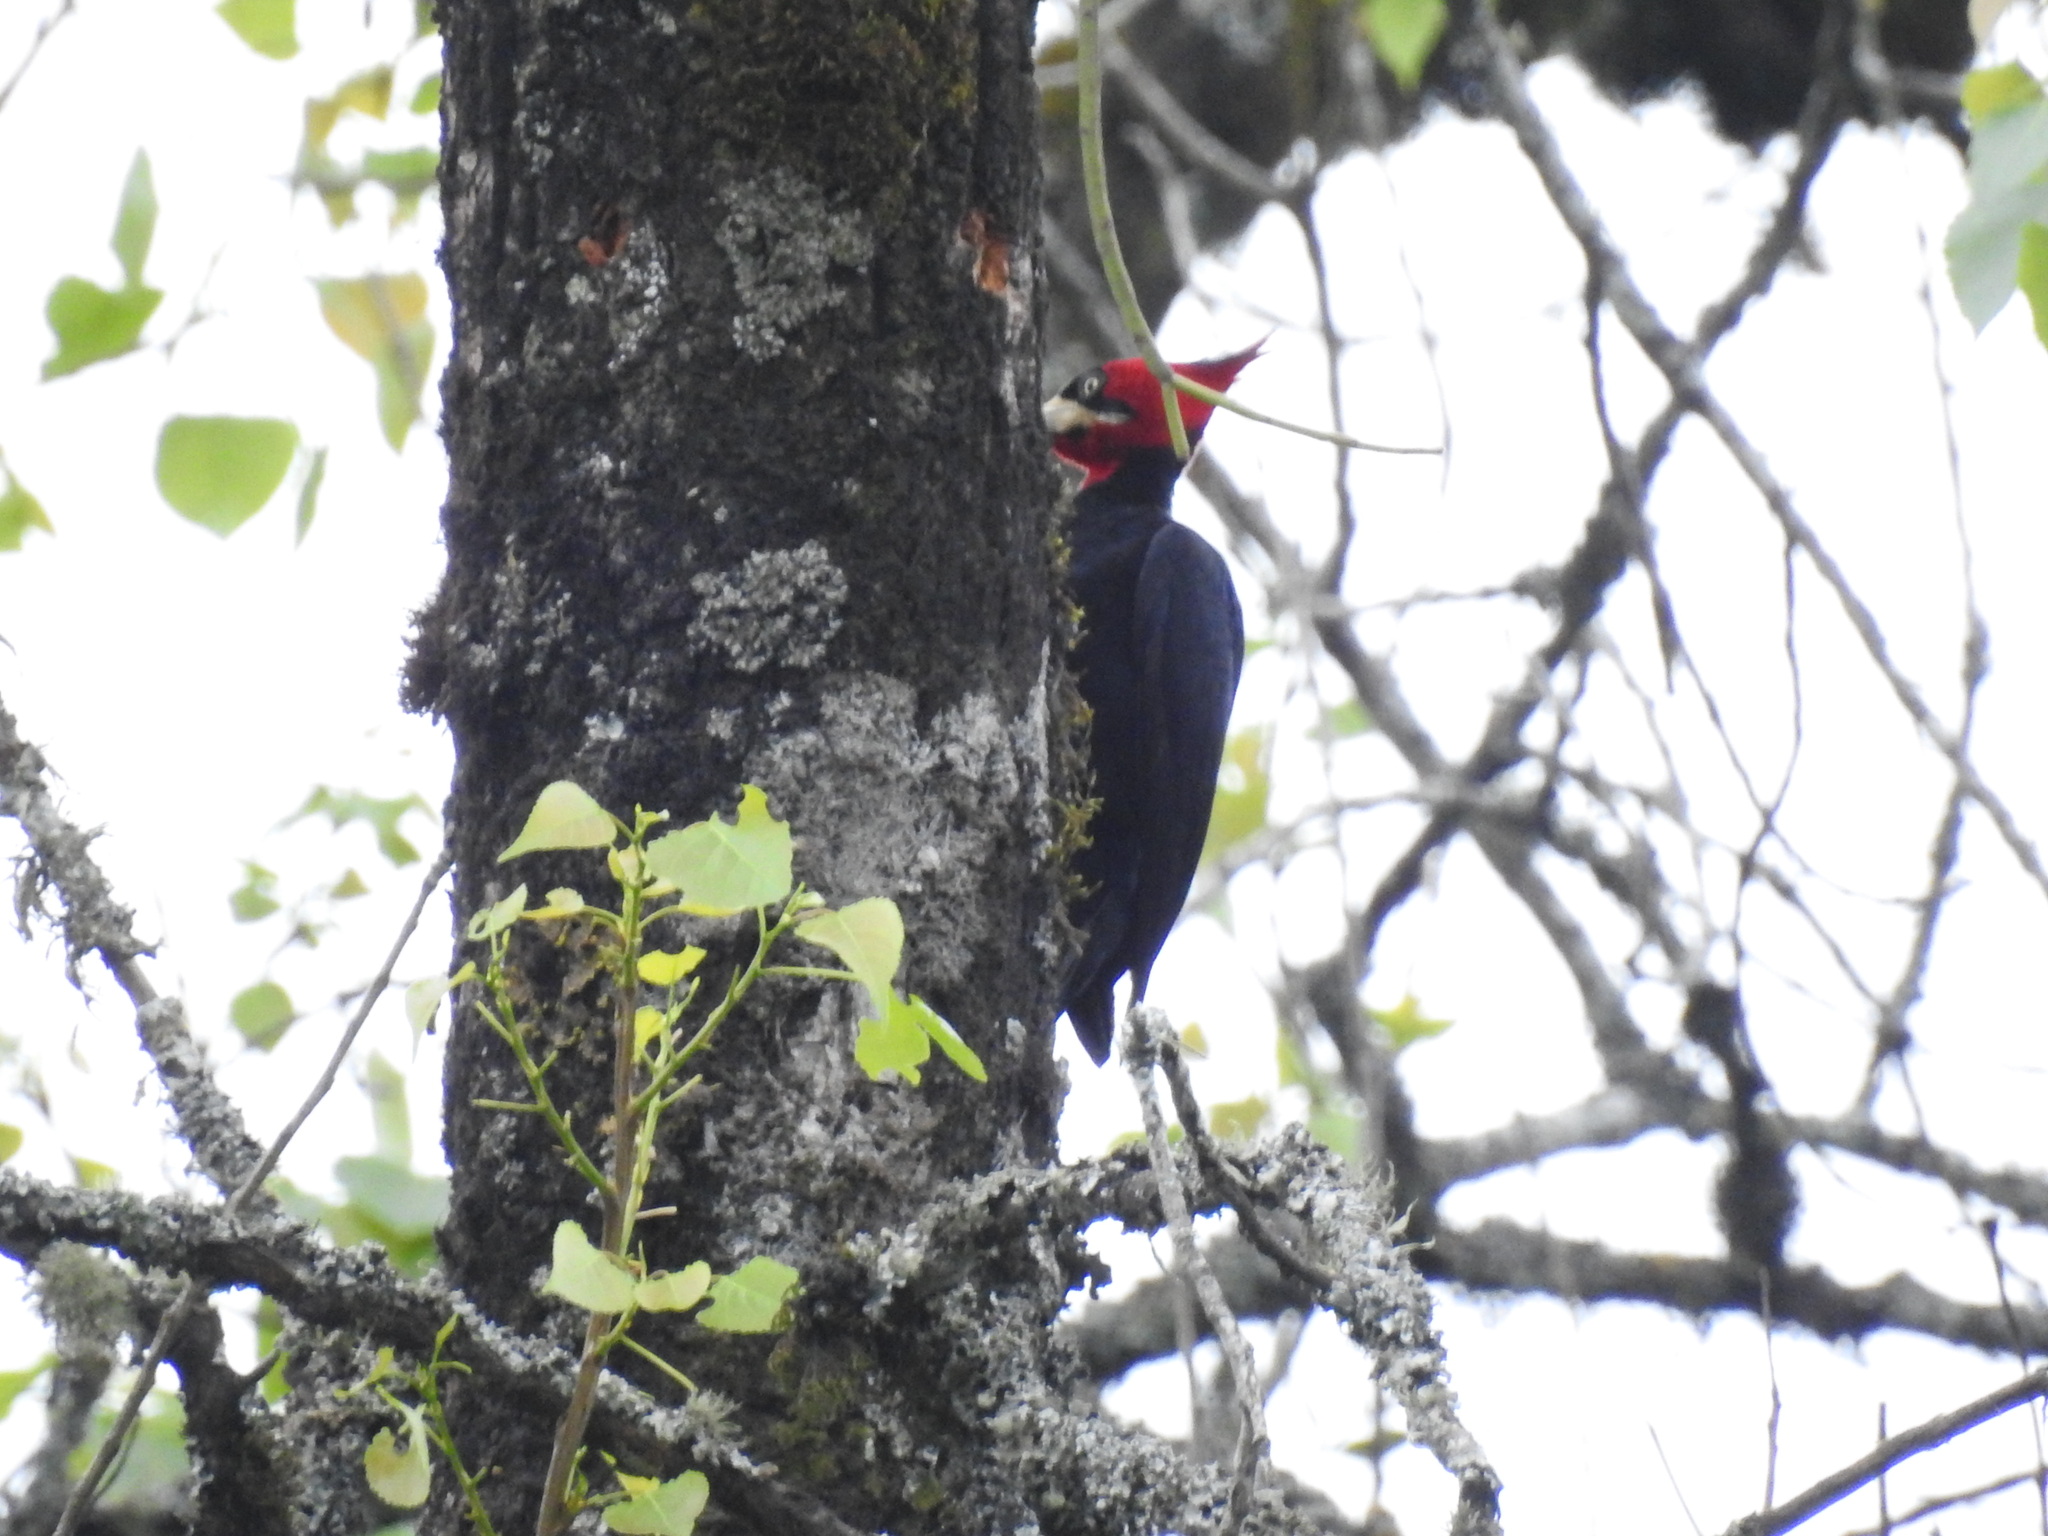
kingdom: Animalia
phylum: Chordata
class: Aves
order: Piciformes
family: Picidae
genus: Campephilus
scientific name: Campephilus leucopogon
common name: Cream-backed woodpecker
